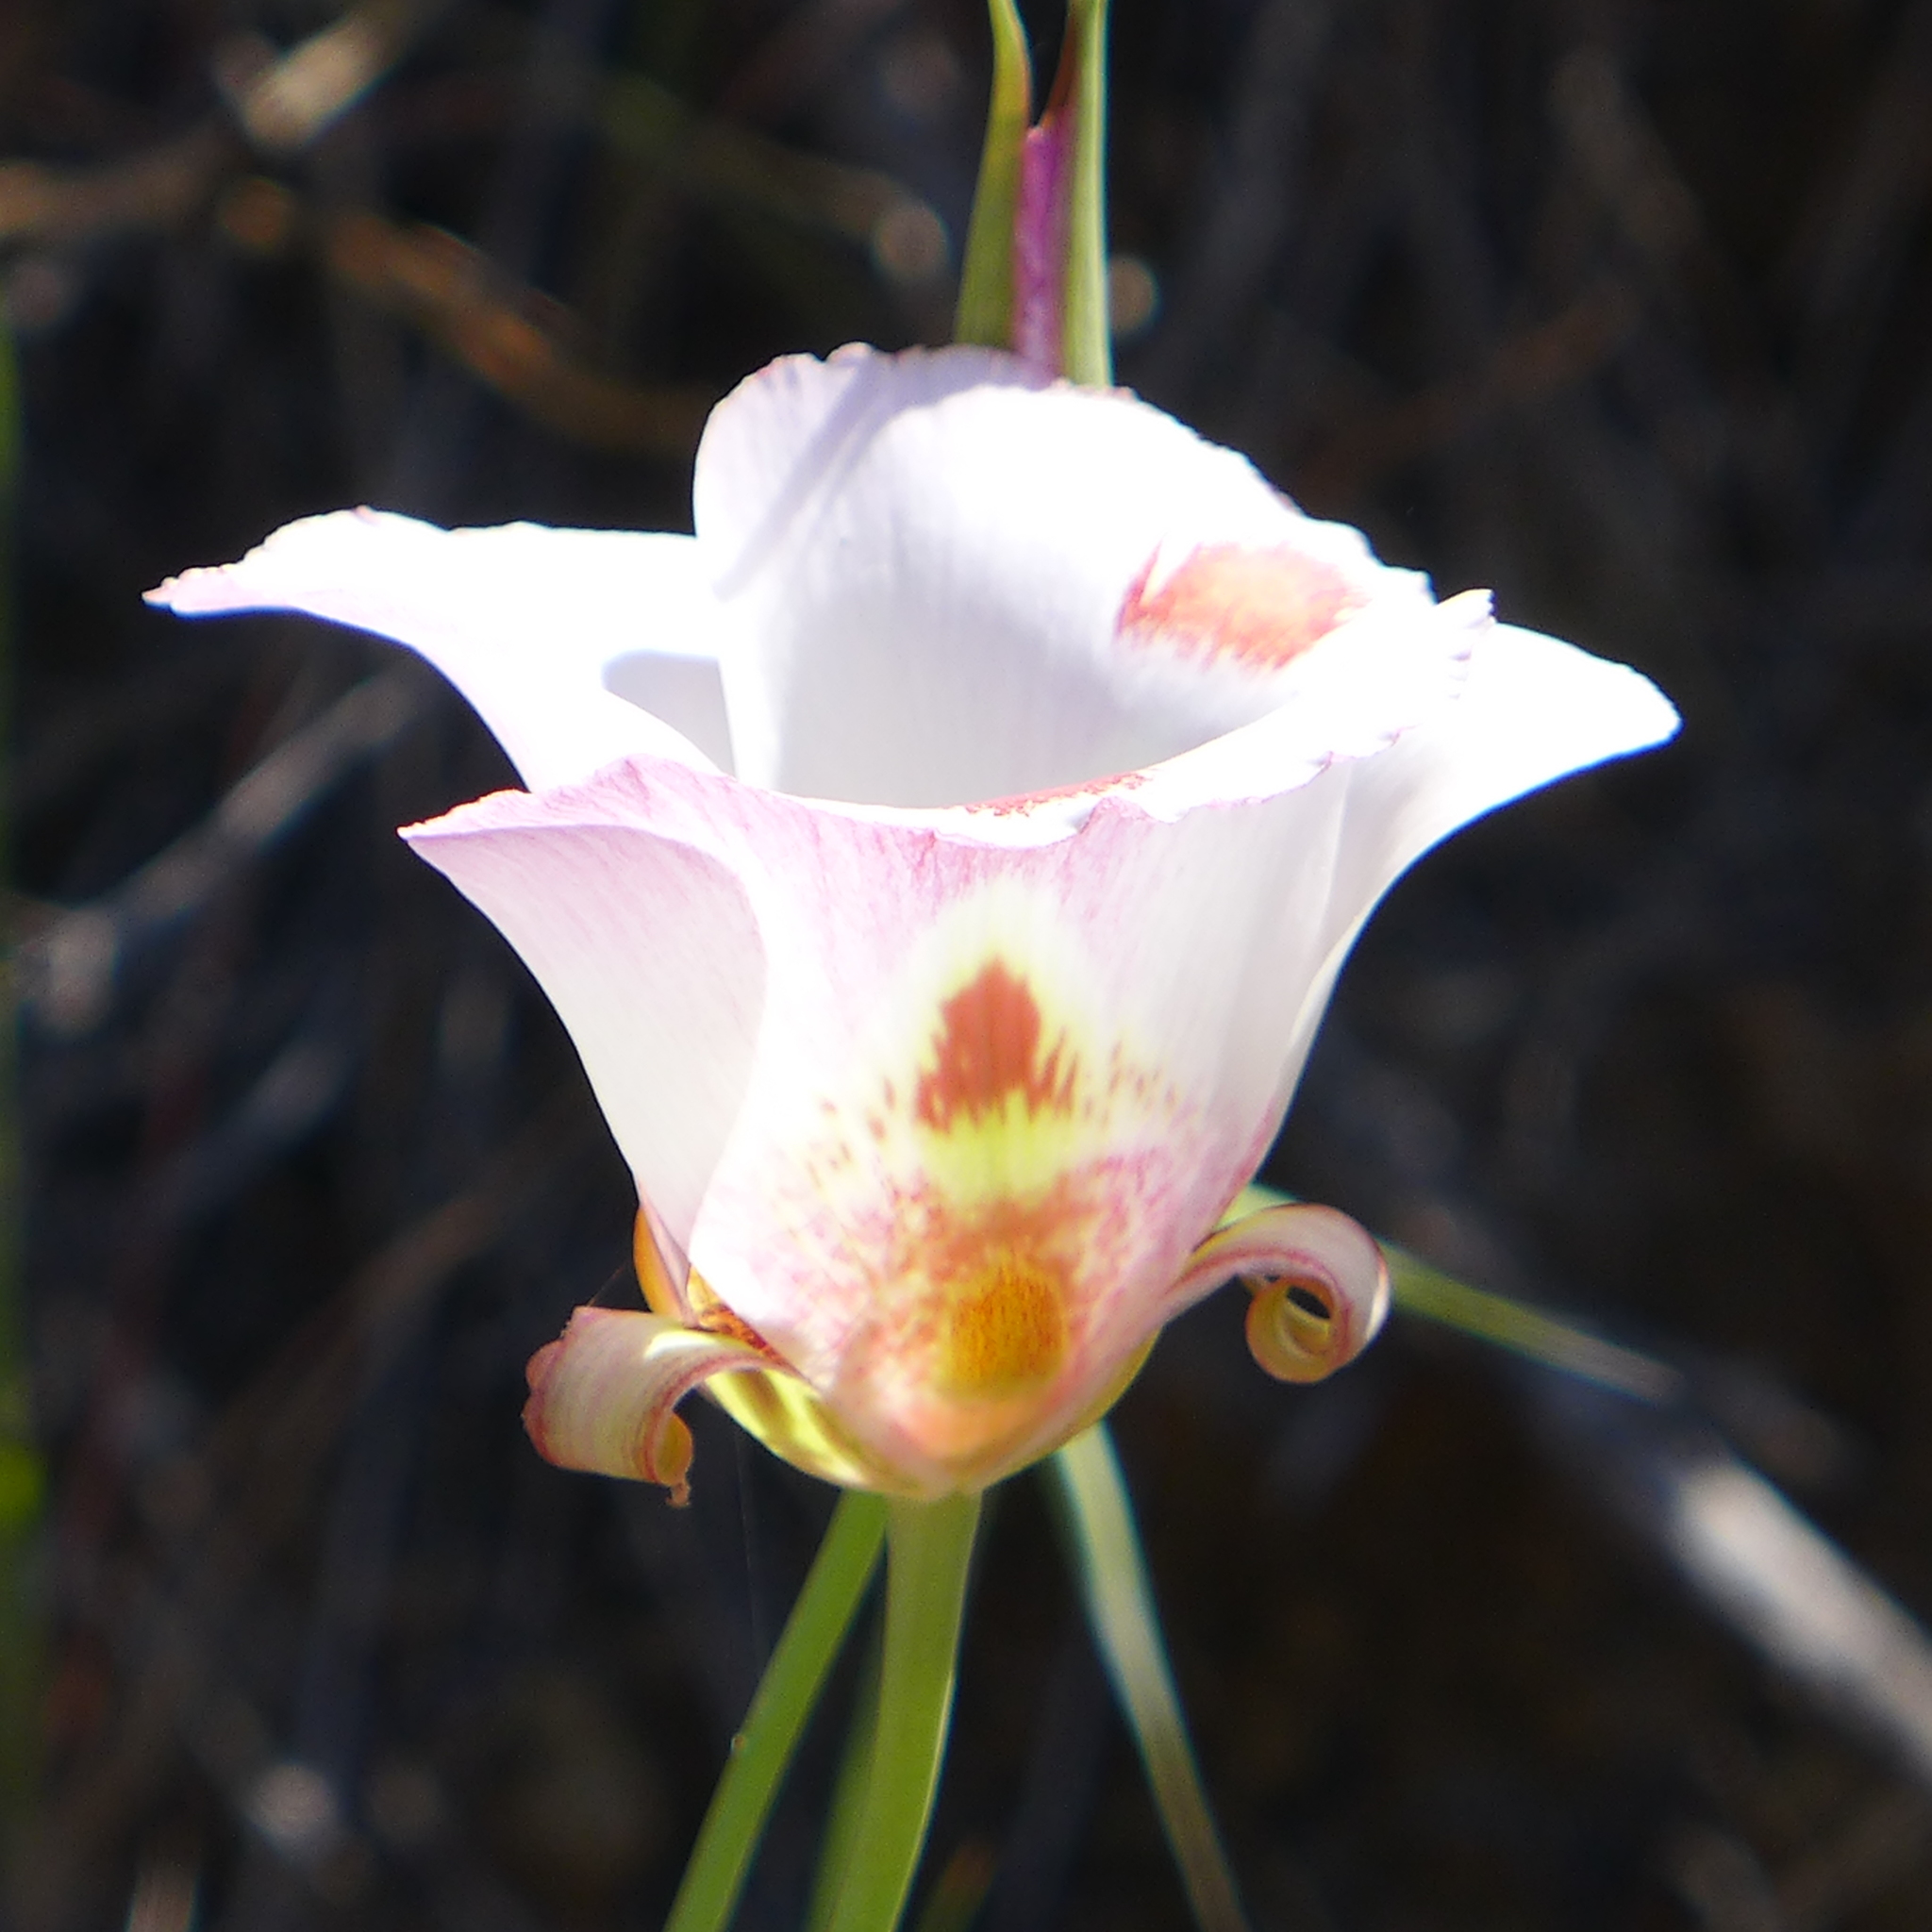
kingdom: Plantae
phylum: Tracheophyta
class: Liliopsida
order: Liliales
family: Liliaceae
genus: Calochortus
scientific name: Calochortus venustus
